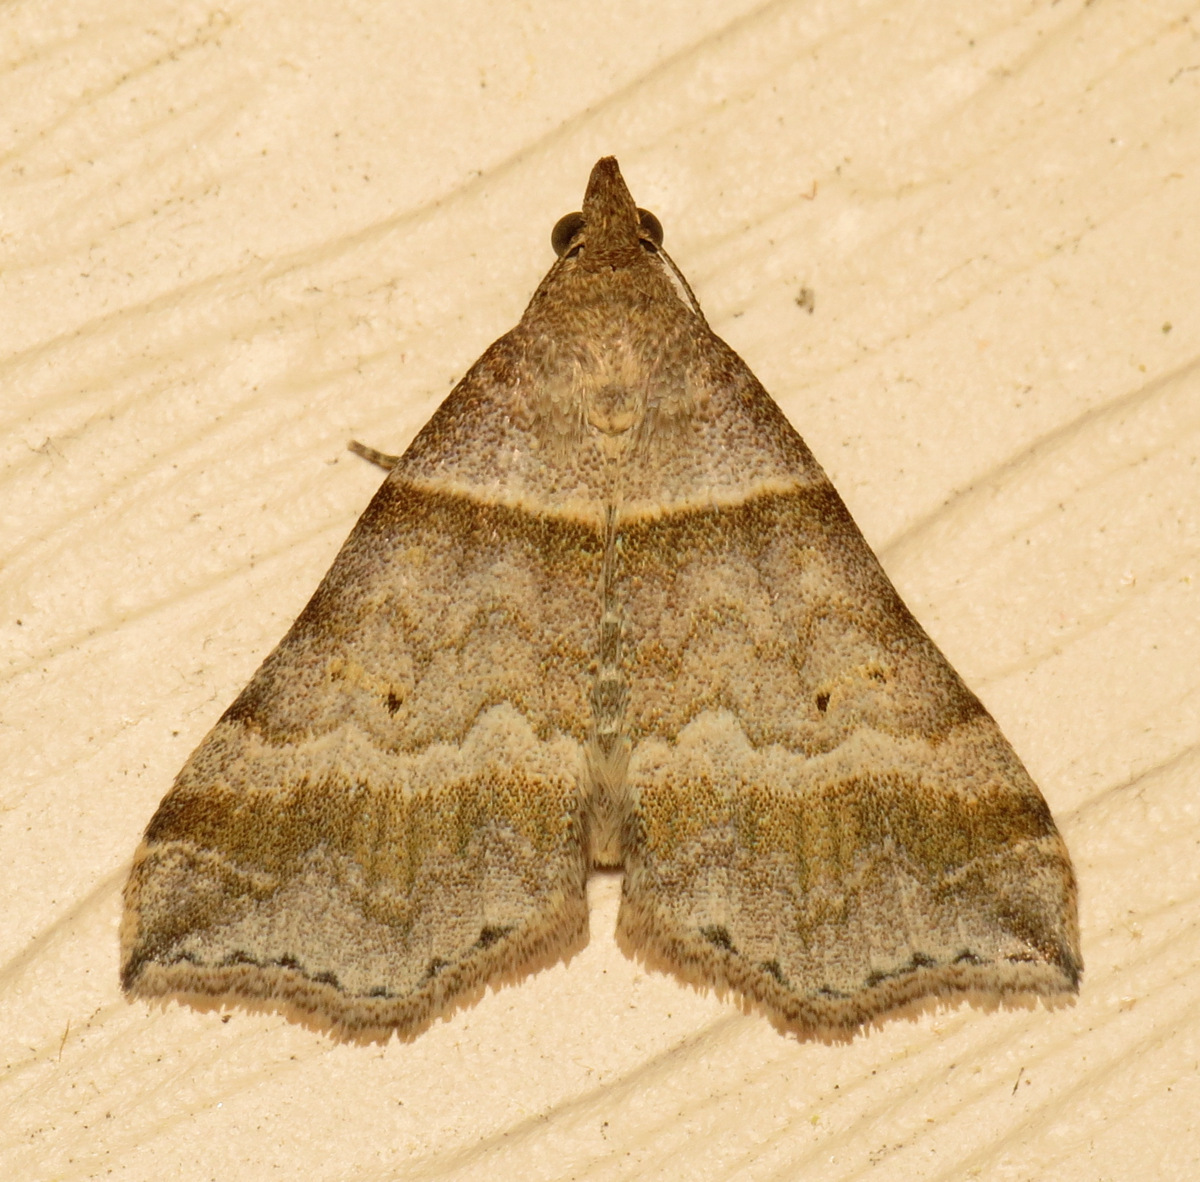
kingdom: Animalia
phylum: Arthropoda
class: Insecta
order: Lepidoptera
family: Erebidae
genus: Phaeolita
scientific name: Phaeolita pyramusalis
